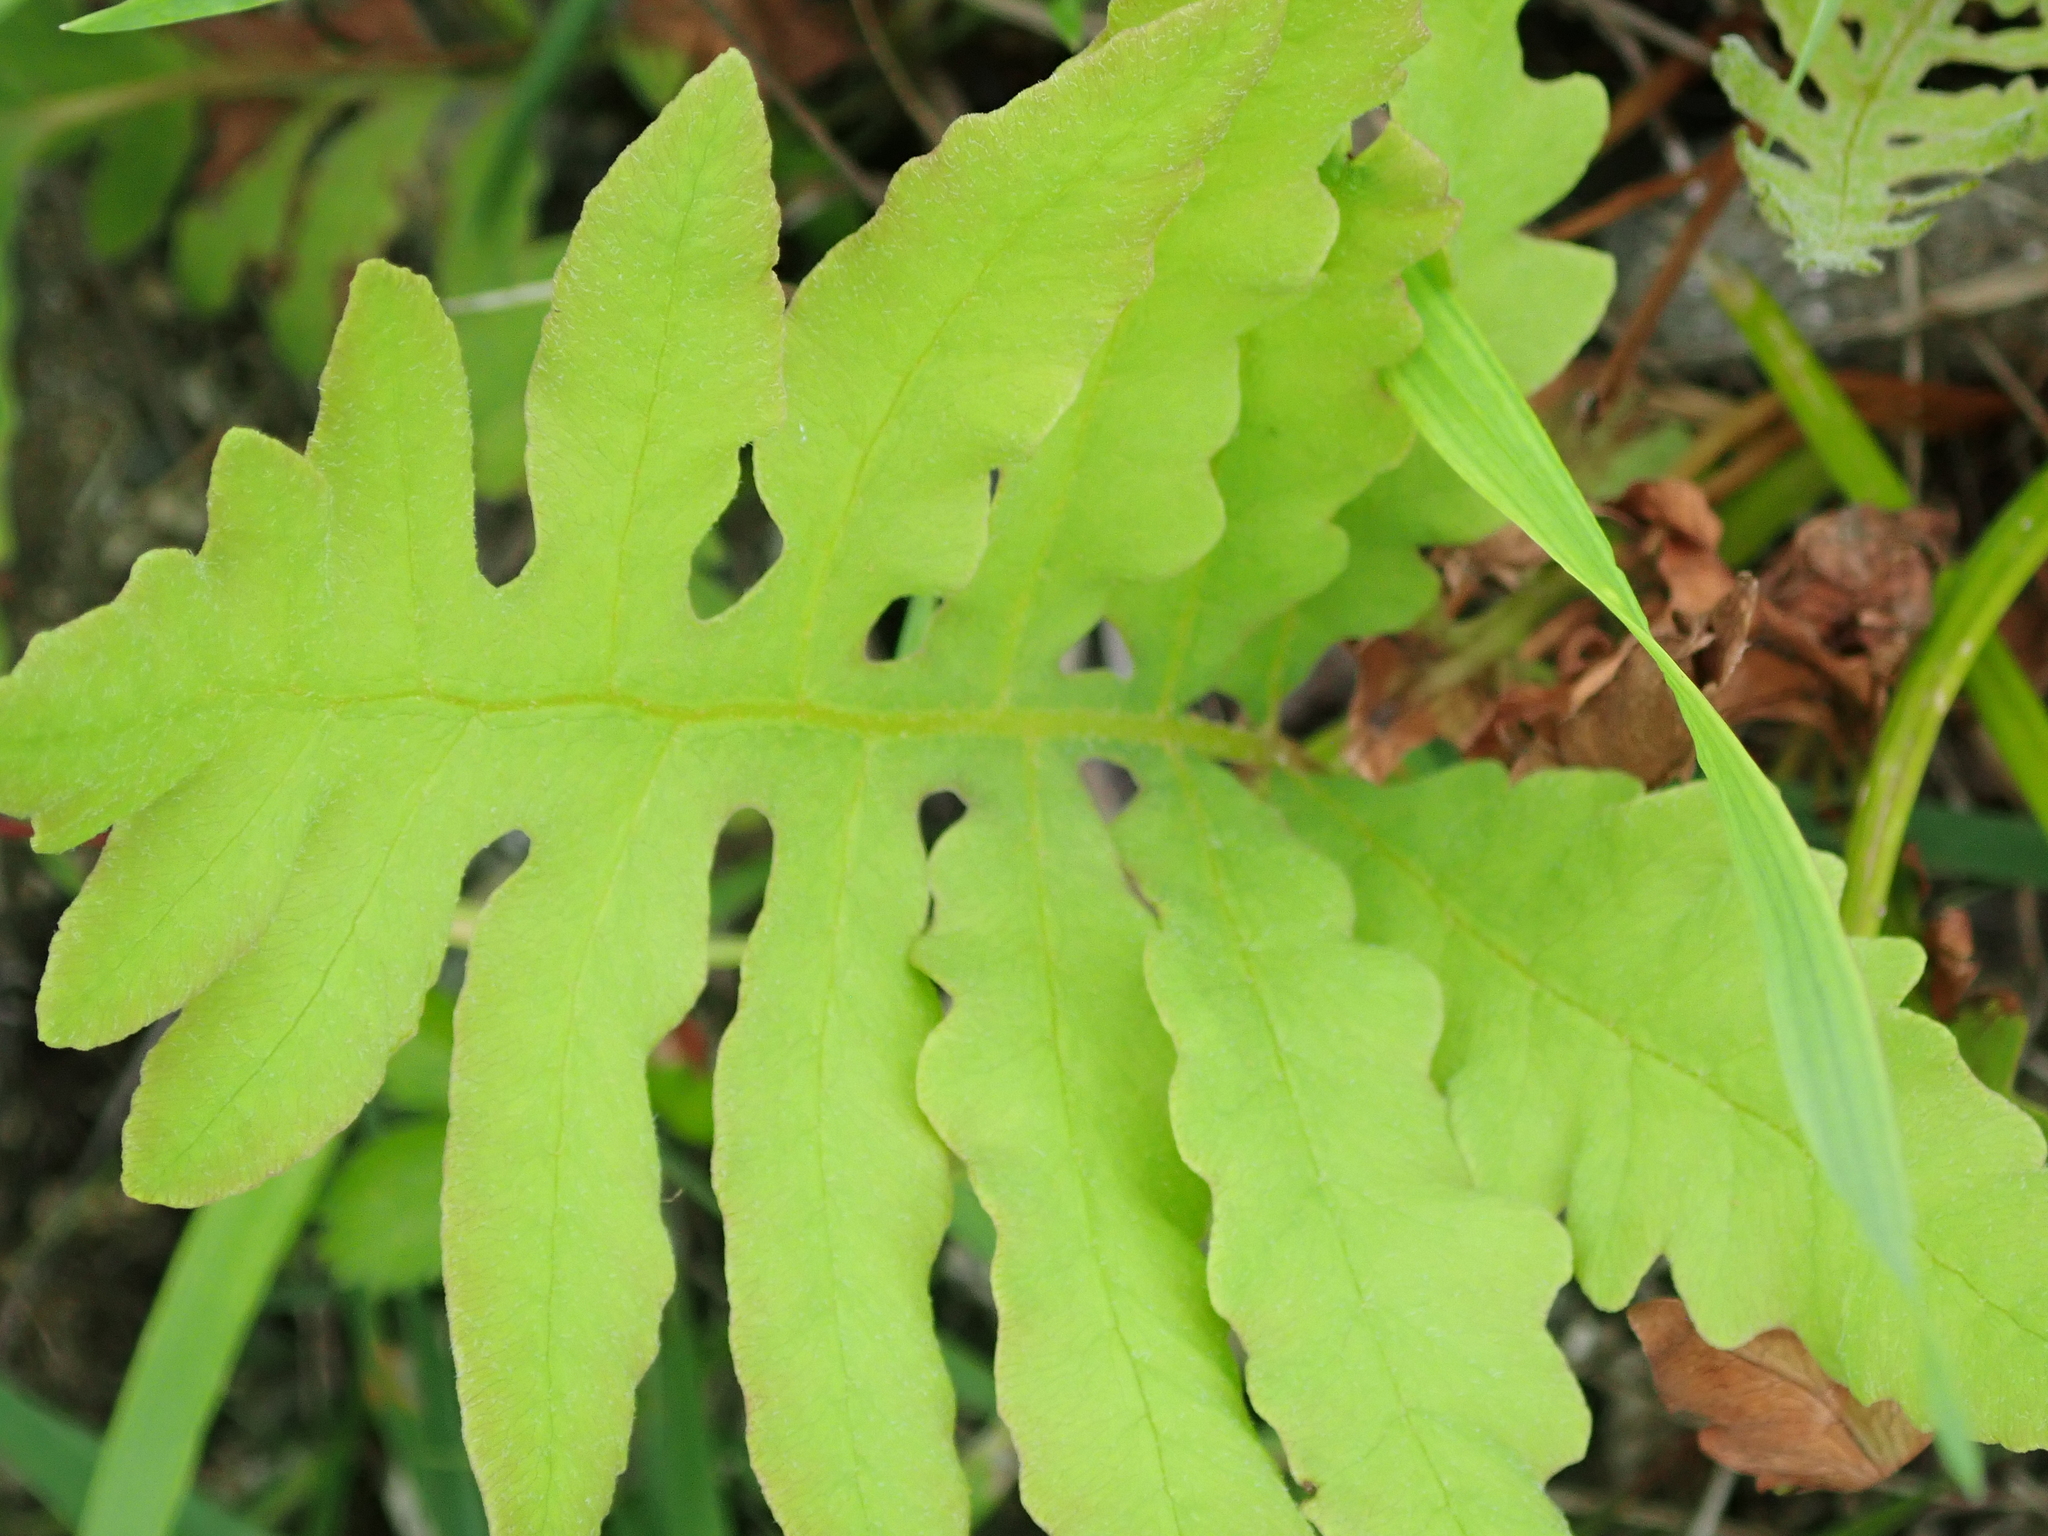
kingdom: Plantae
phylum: Tracheophyta
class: Polypodiopsida
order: Polypodiales
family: Onocleaceae
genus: Onoclea
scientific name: Onoclea sensibilis
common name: Sensitive fern
